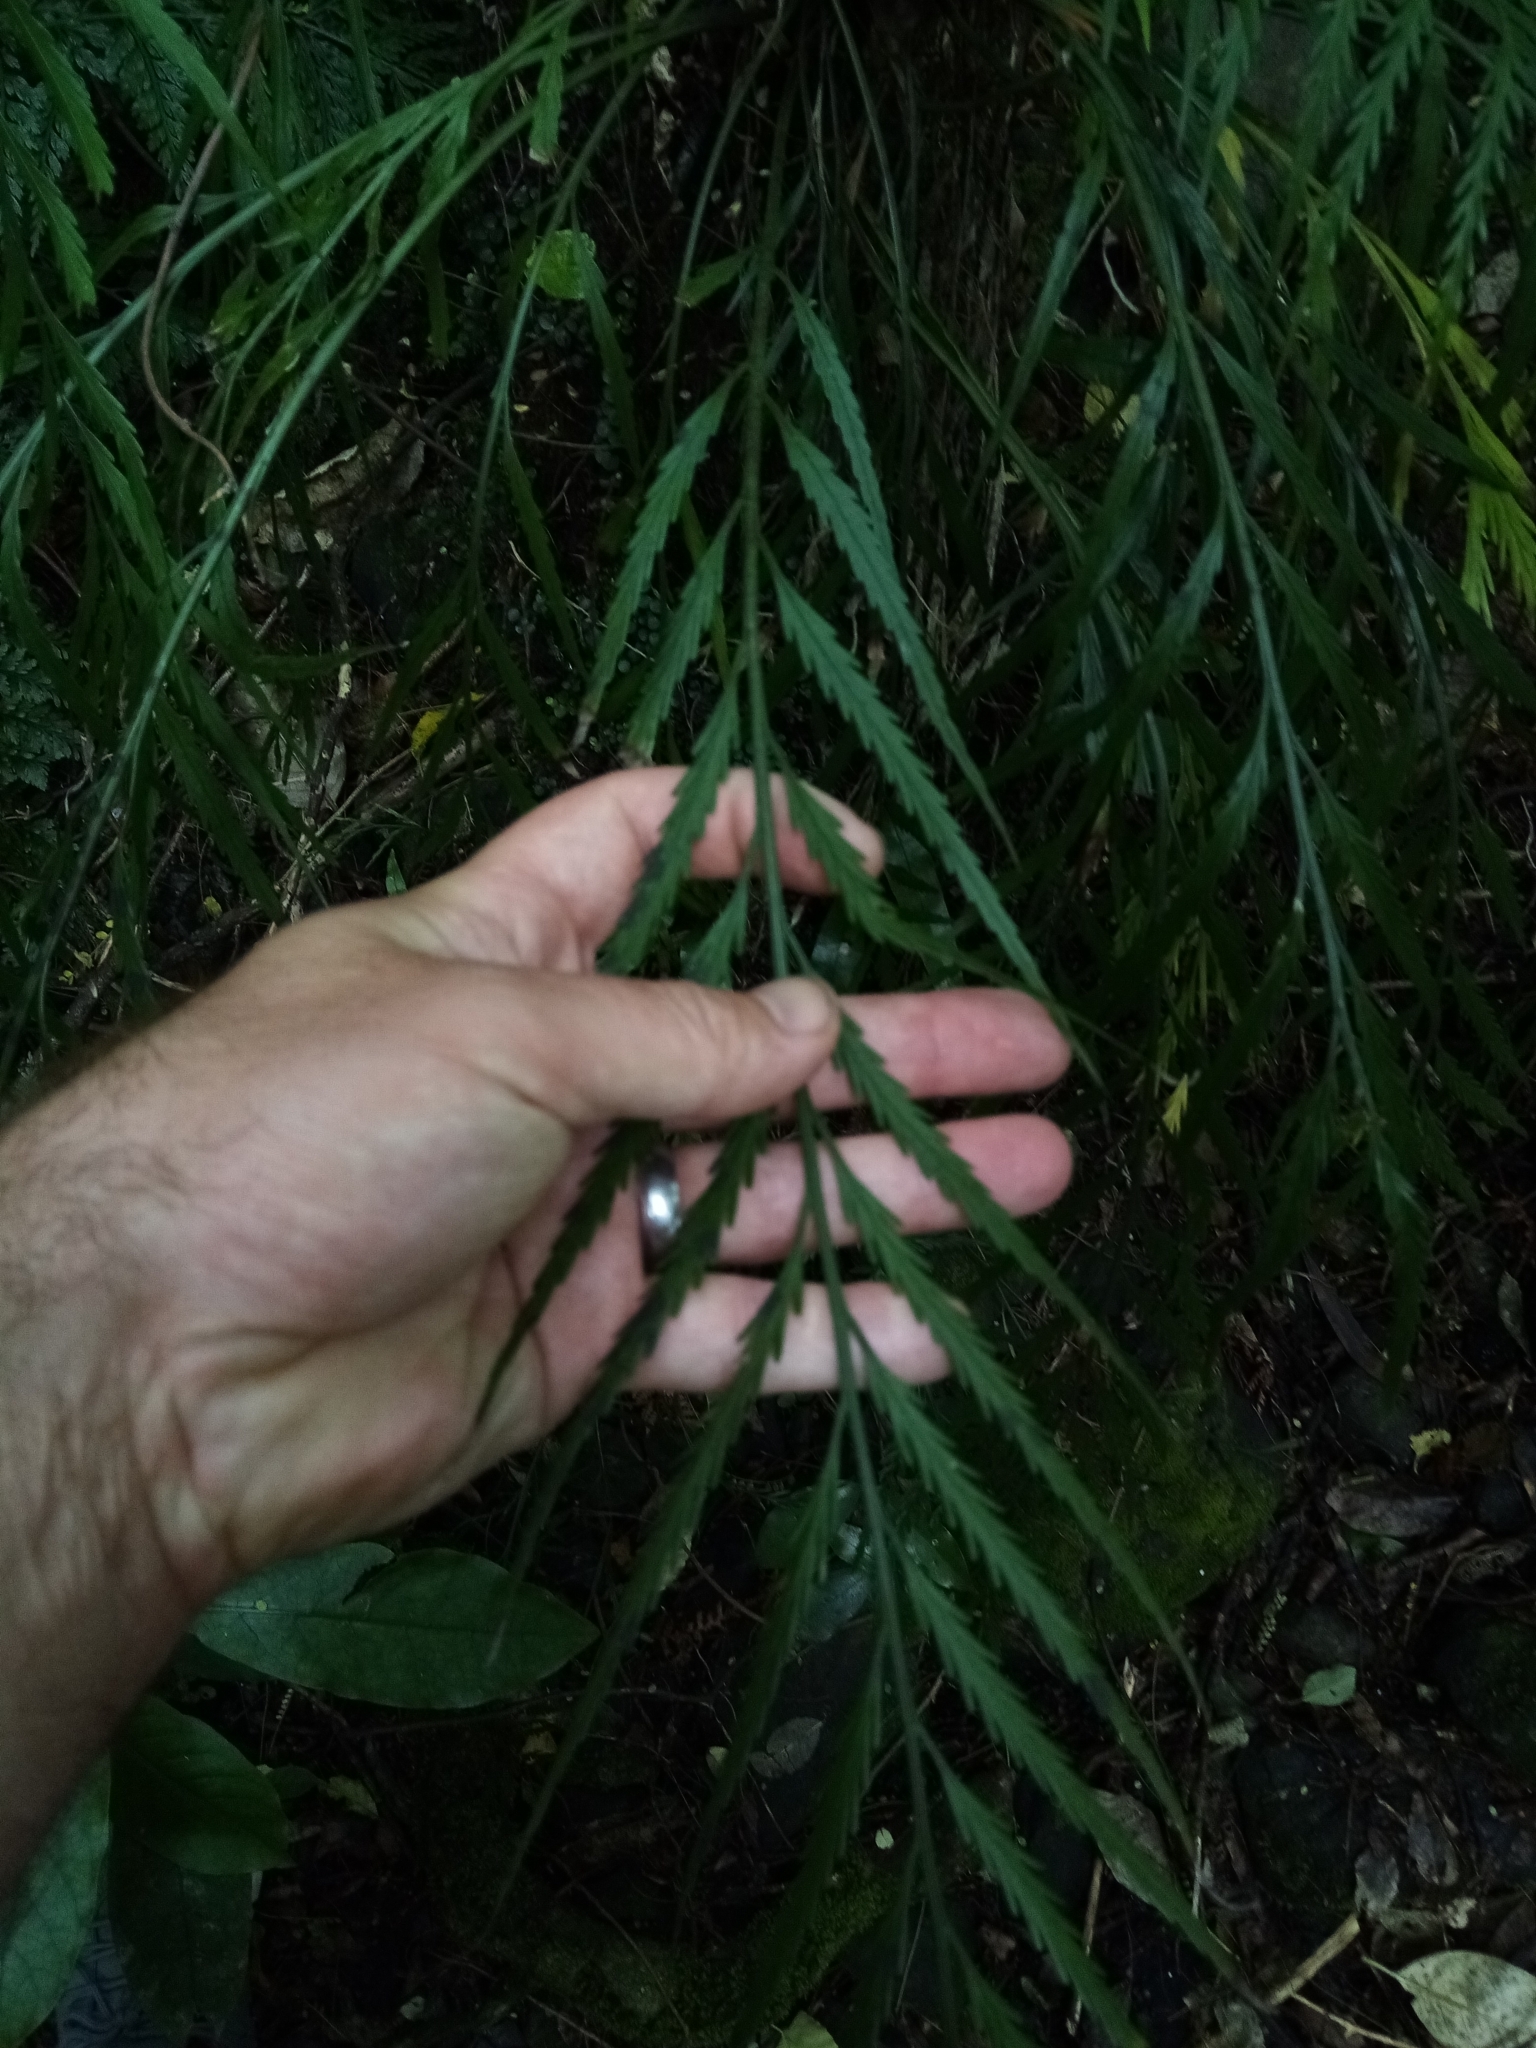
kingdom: Plantae
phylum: Tracheophyta
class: Polypodiopsida
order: Polypodiales
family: Aspleniaceae
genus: Asplenium
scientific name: Asplenium flaccidum
